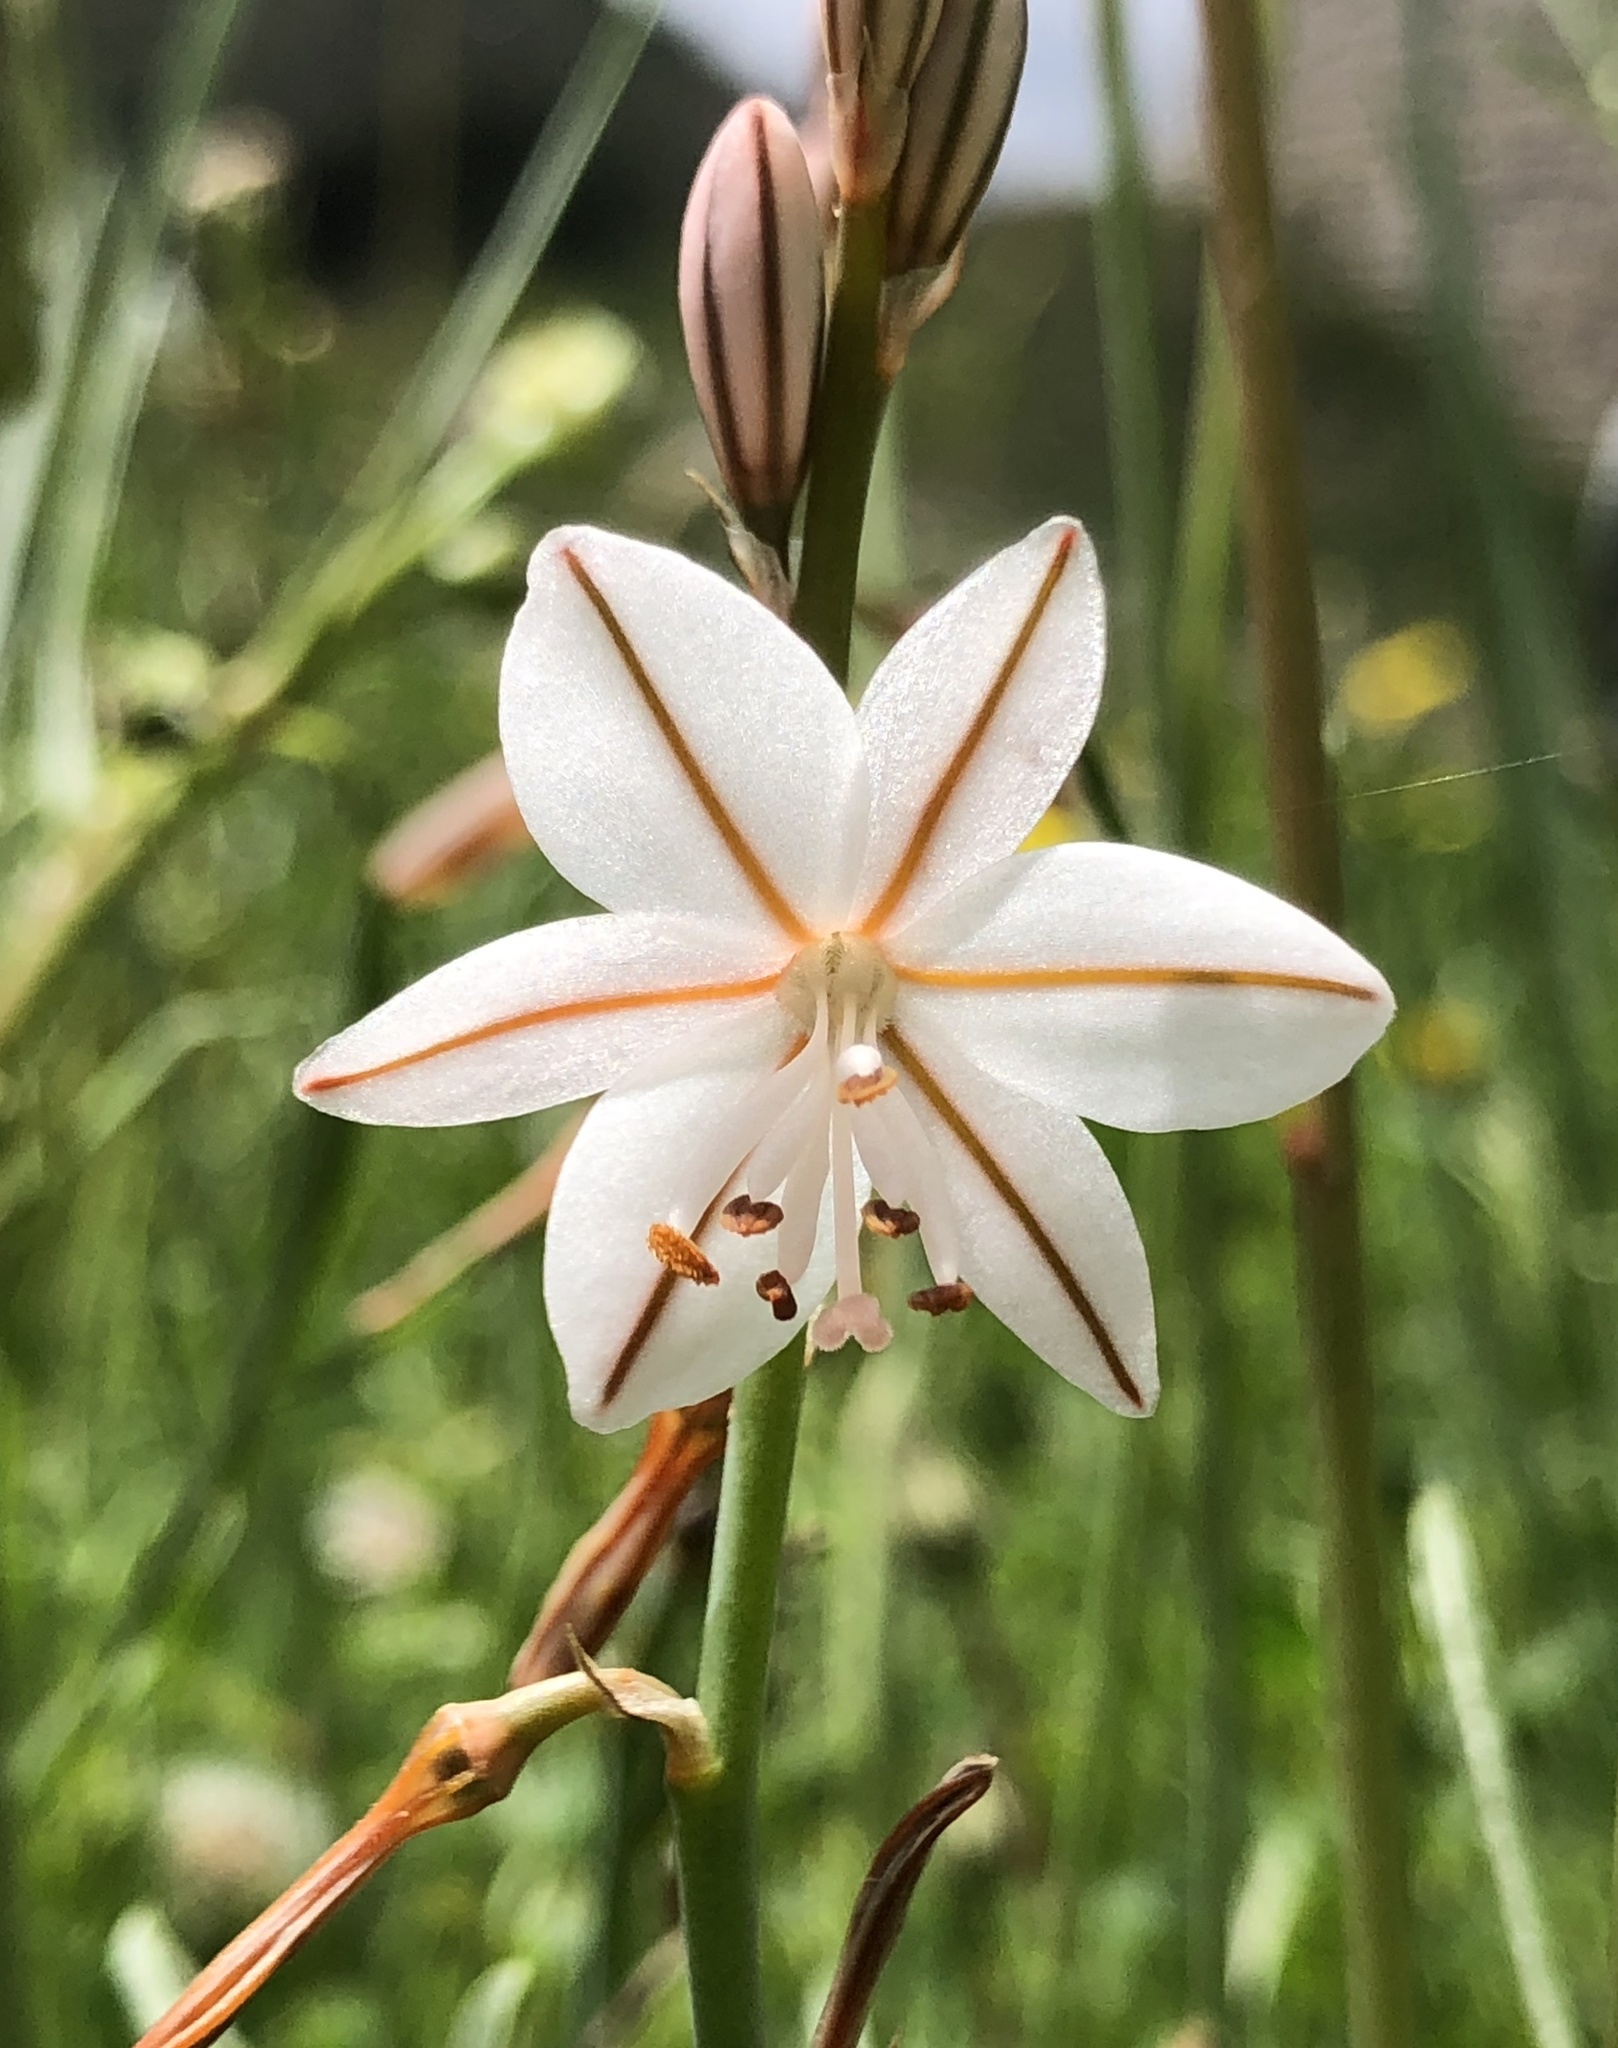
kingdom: Plantae
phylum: Tracheophyta
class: Liliopsida
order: Asparagales
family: Asphodelaceae
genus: Asphodelus
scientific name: Asphodelus fistulosus
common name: Onionweed
